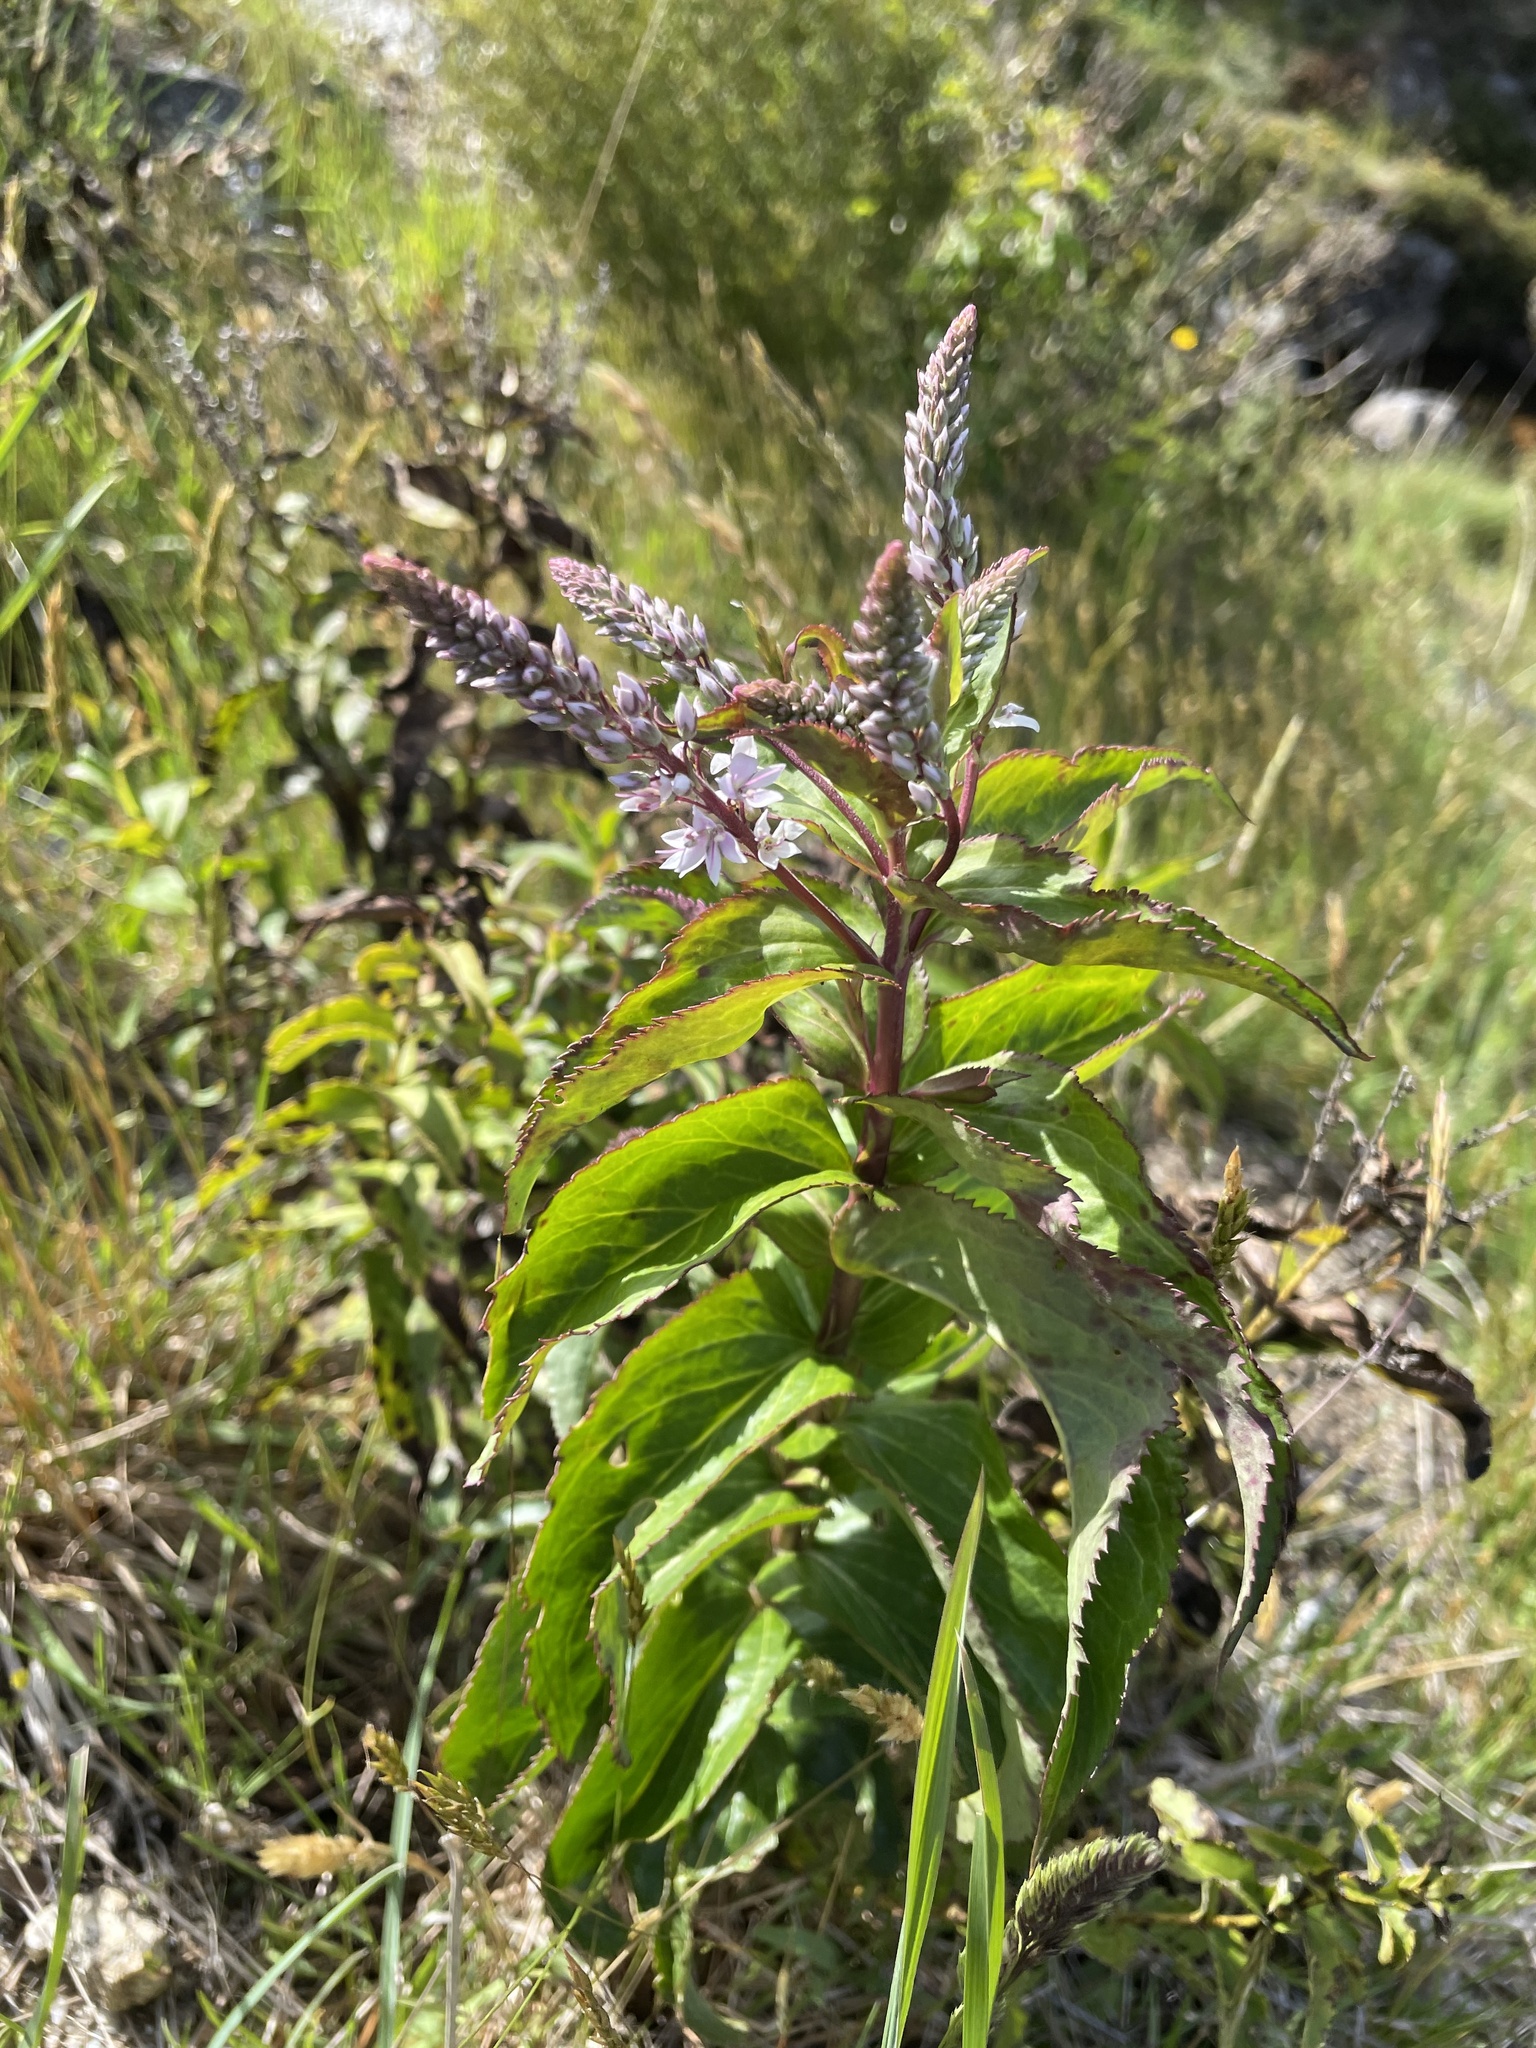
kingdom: Plantae
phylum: Tracheophyta
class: Magnoliopsida
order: Lamiales
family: Plantaginaceae
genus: Veronica
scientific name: Veronica derwentiana
